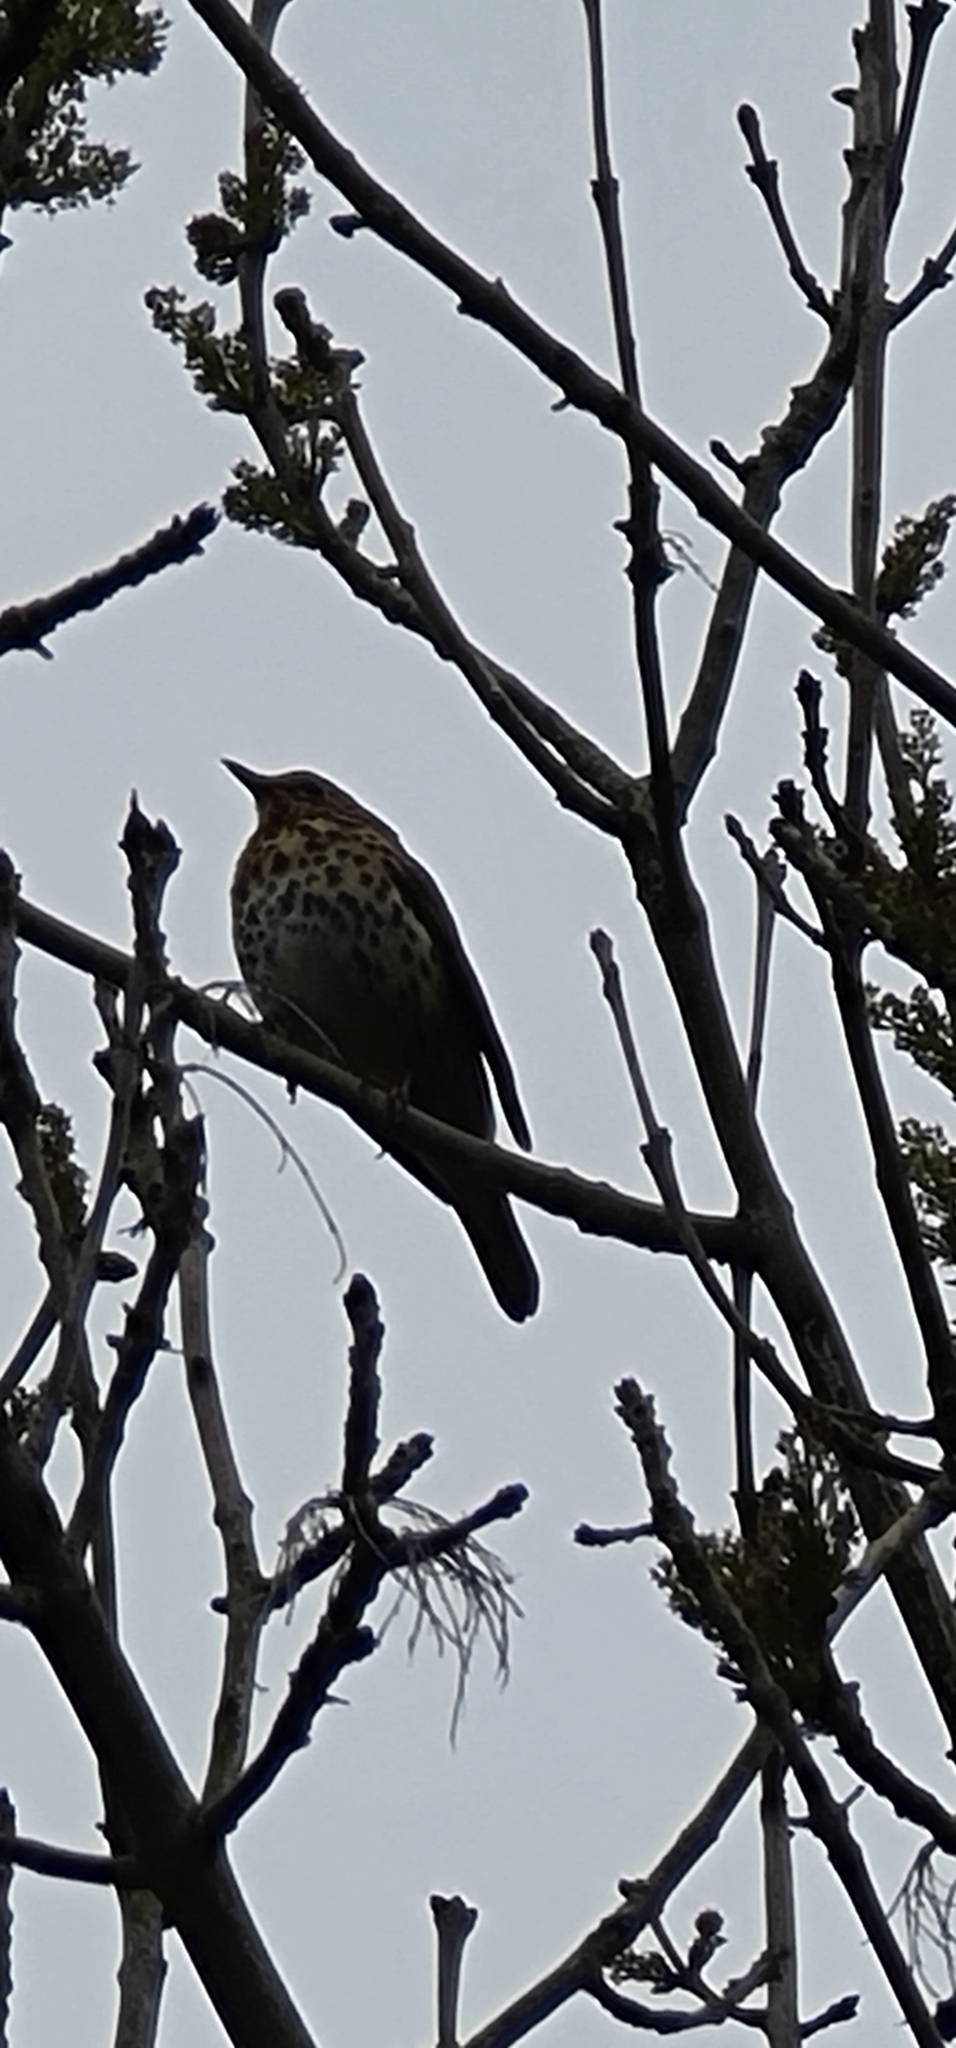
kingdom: Animalia
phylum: Chordata
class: Aves
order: Passeriformes
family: Turdidae
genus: Turdus
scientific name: Turdus philomelos
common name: Song thrush
